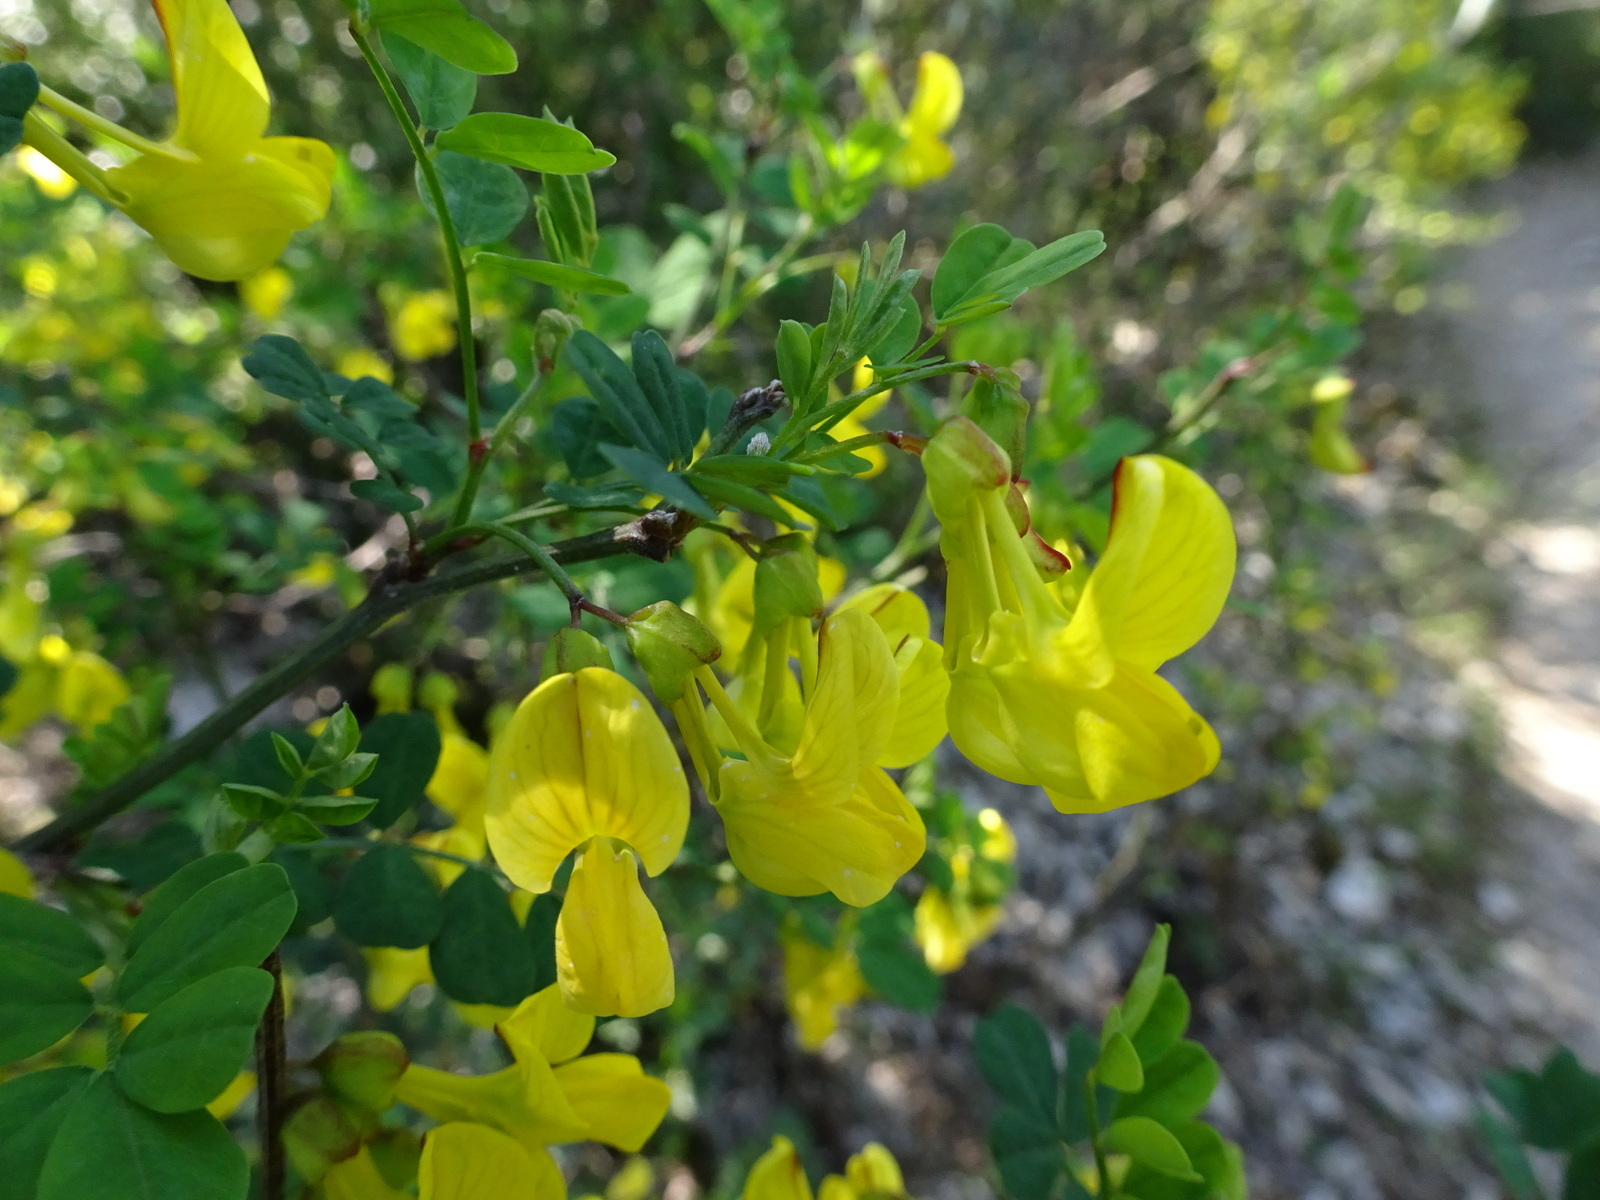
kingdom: Plantae
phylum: Tracheophyta
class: Magnoliopsida
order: Fabales
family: Fabaceae
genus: Hippocrepis
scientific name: Hippocrepis emerus
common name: Scorpion senna
